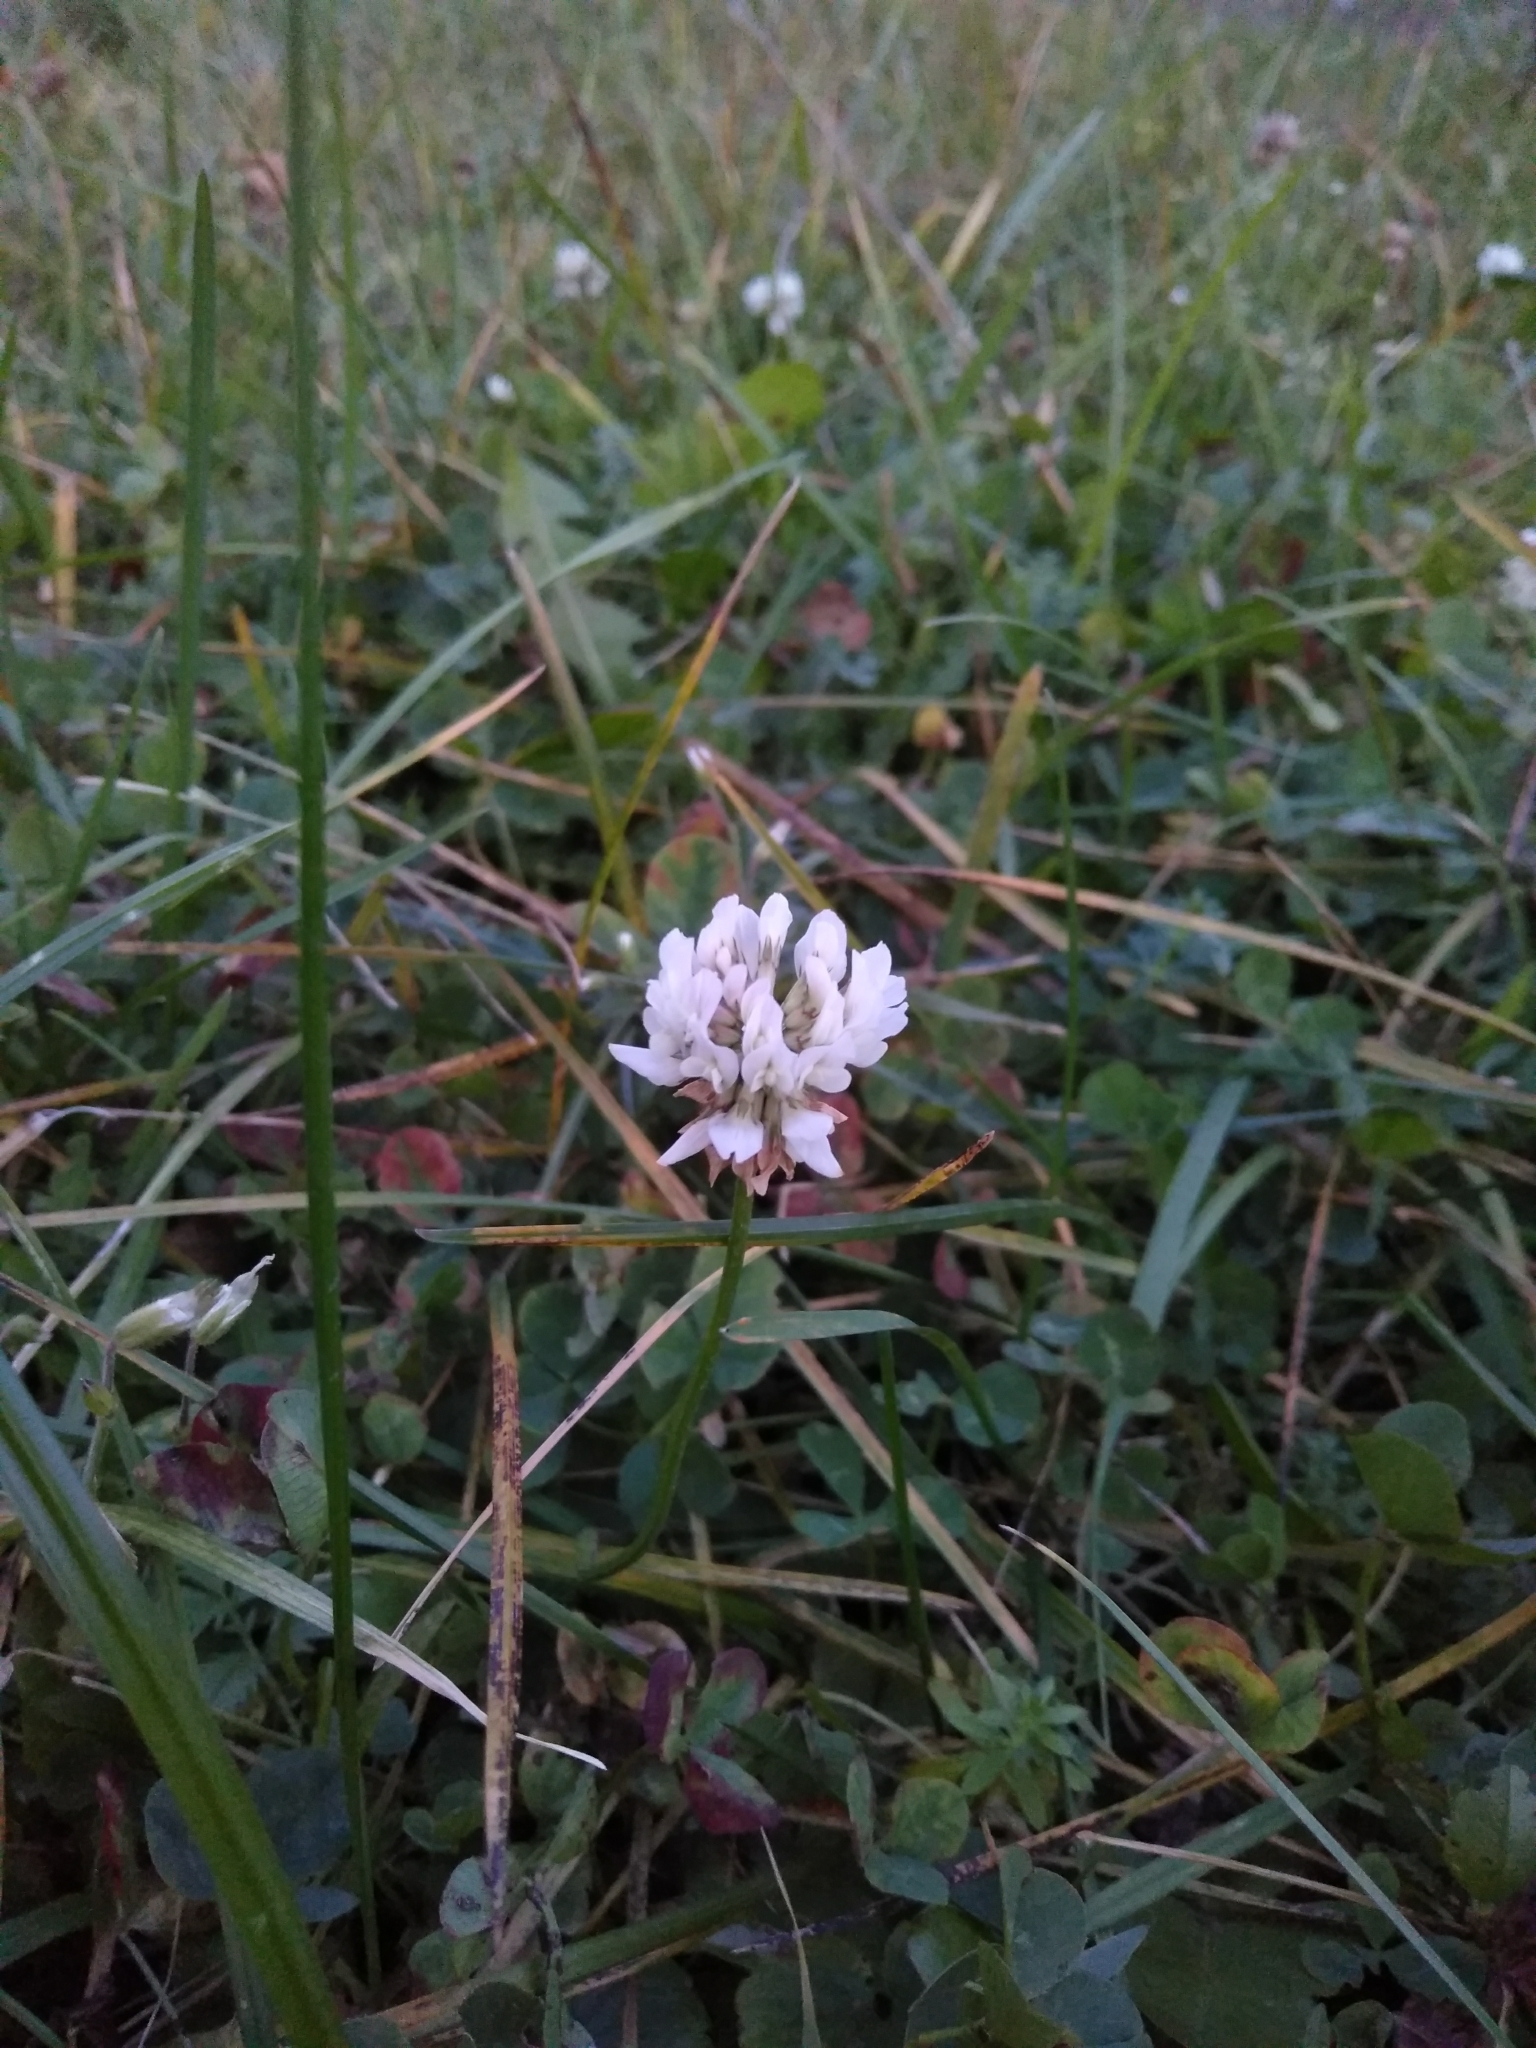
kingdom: Plantae
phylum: Tracheophyta
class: Magnoliopsida
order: Fabales
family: Fabaceae
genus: Trifolium
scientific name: Trifolium repens
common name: White clover
